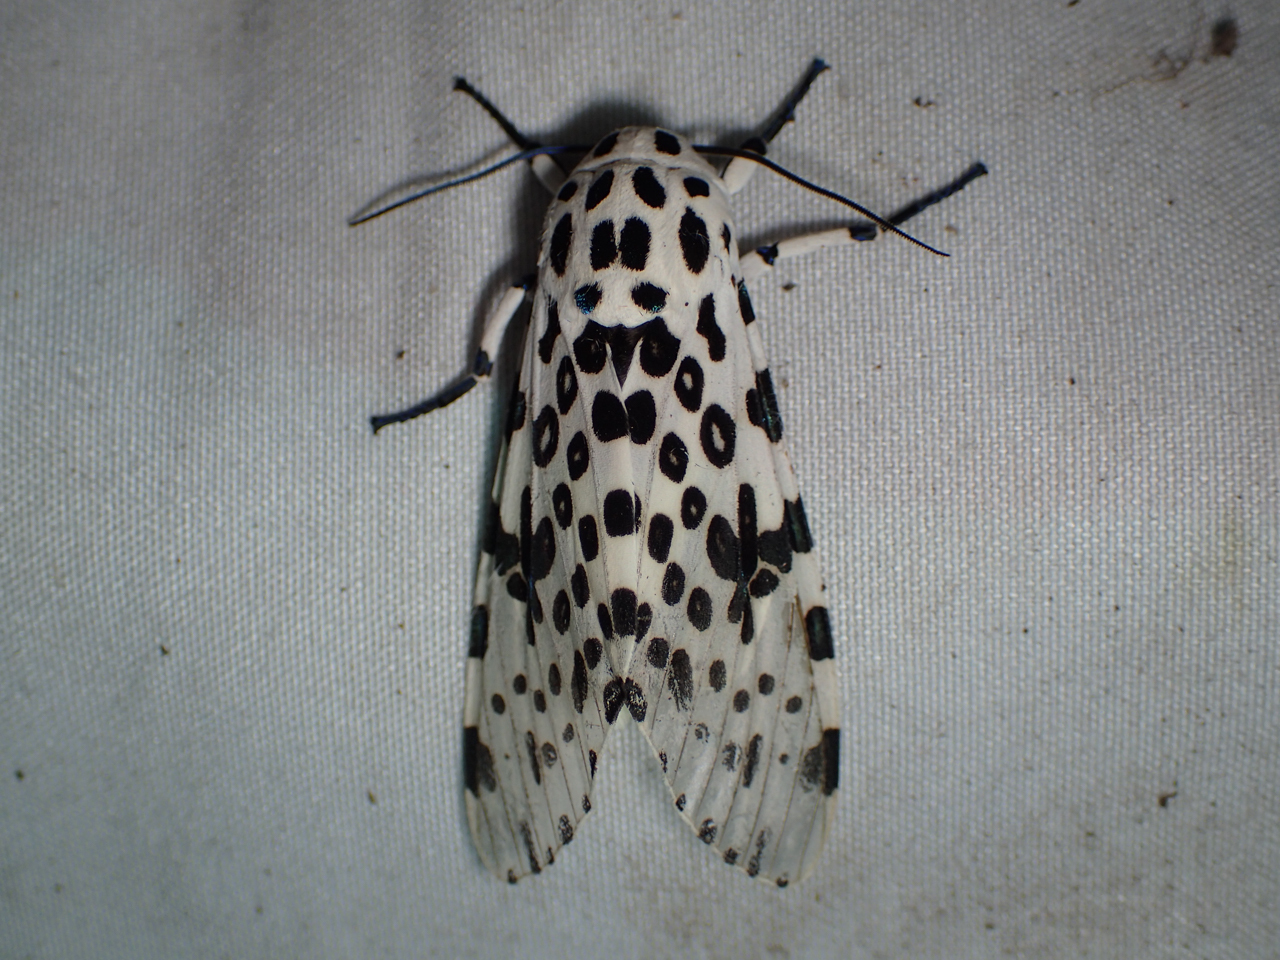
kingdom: Animalia
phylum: Arthropoda
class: Insecta
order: Lepidoptera
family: Erebidae
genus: Hypercompe
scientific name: Hypercompe scribonia
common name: Giant leopard moth
